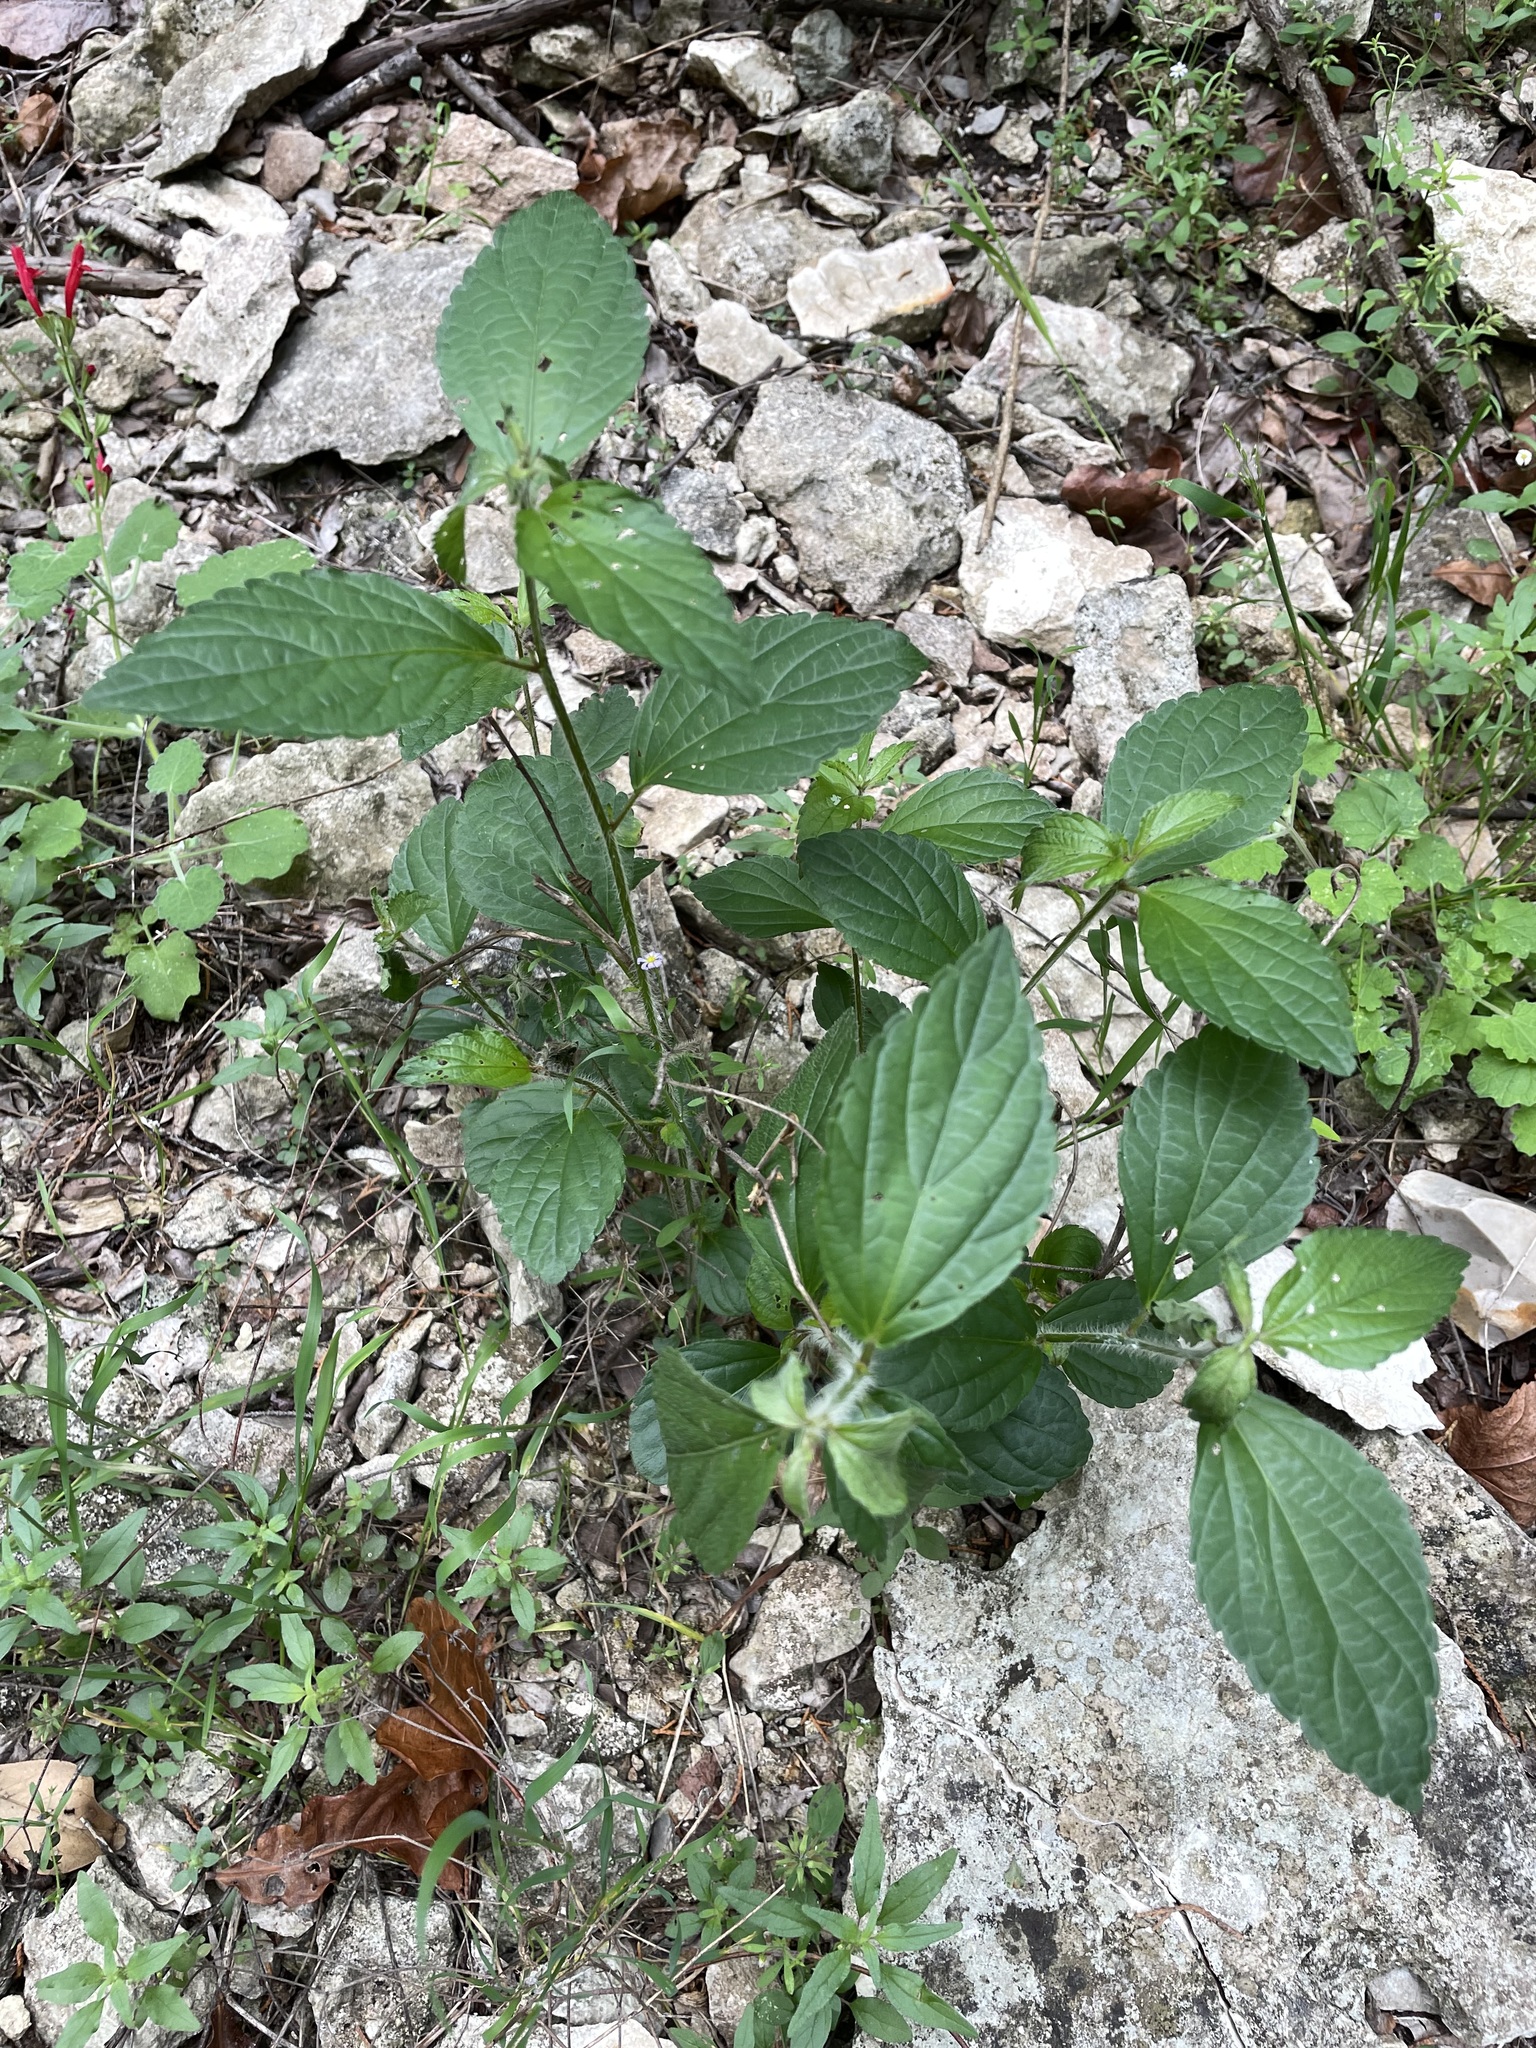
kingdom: Plantae
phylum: Tracheophyta
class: Magnoliopsida
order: Malpighiales
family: Euphorbiaceae
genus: Acalypha
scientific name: Acalypha phleoides
